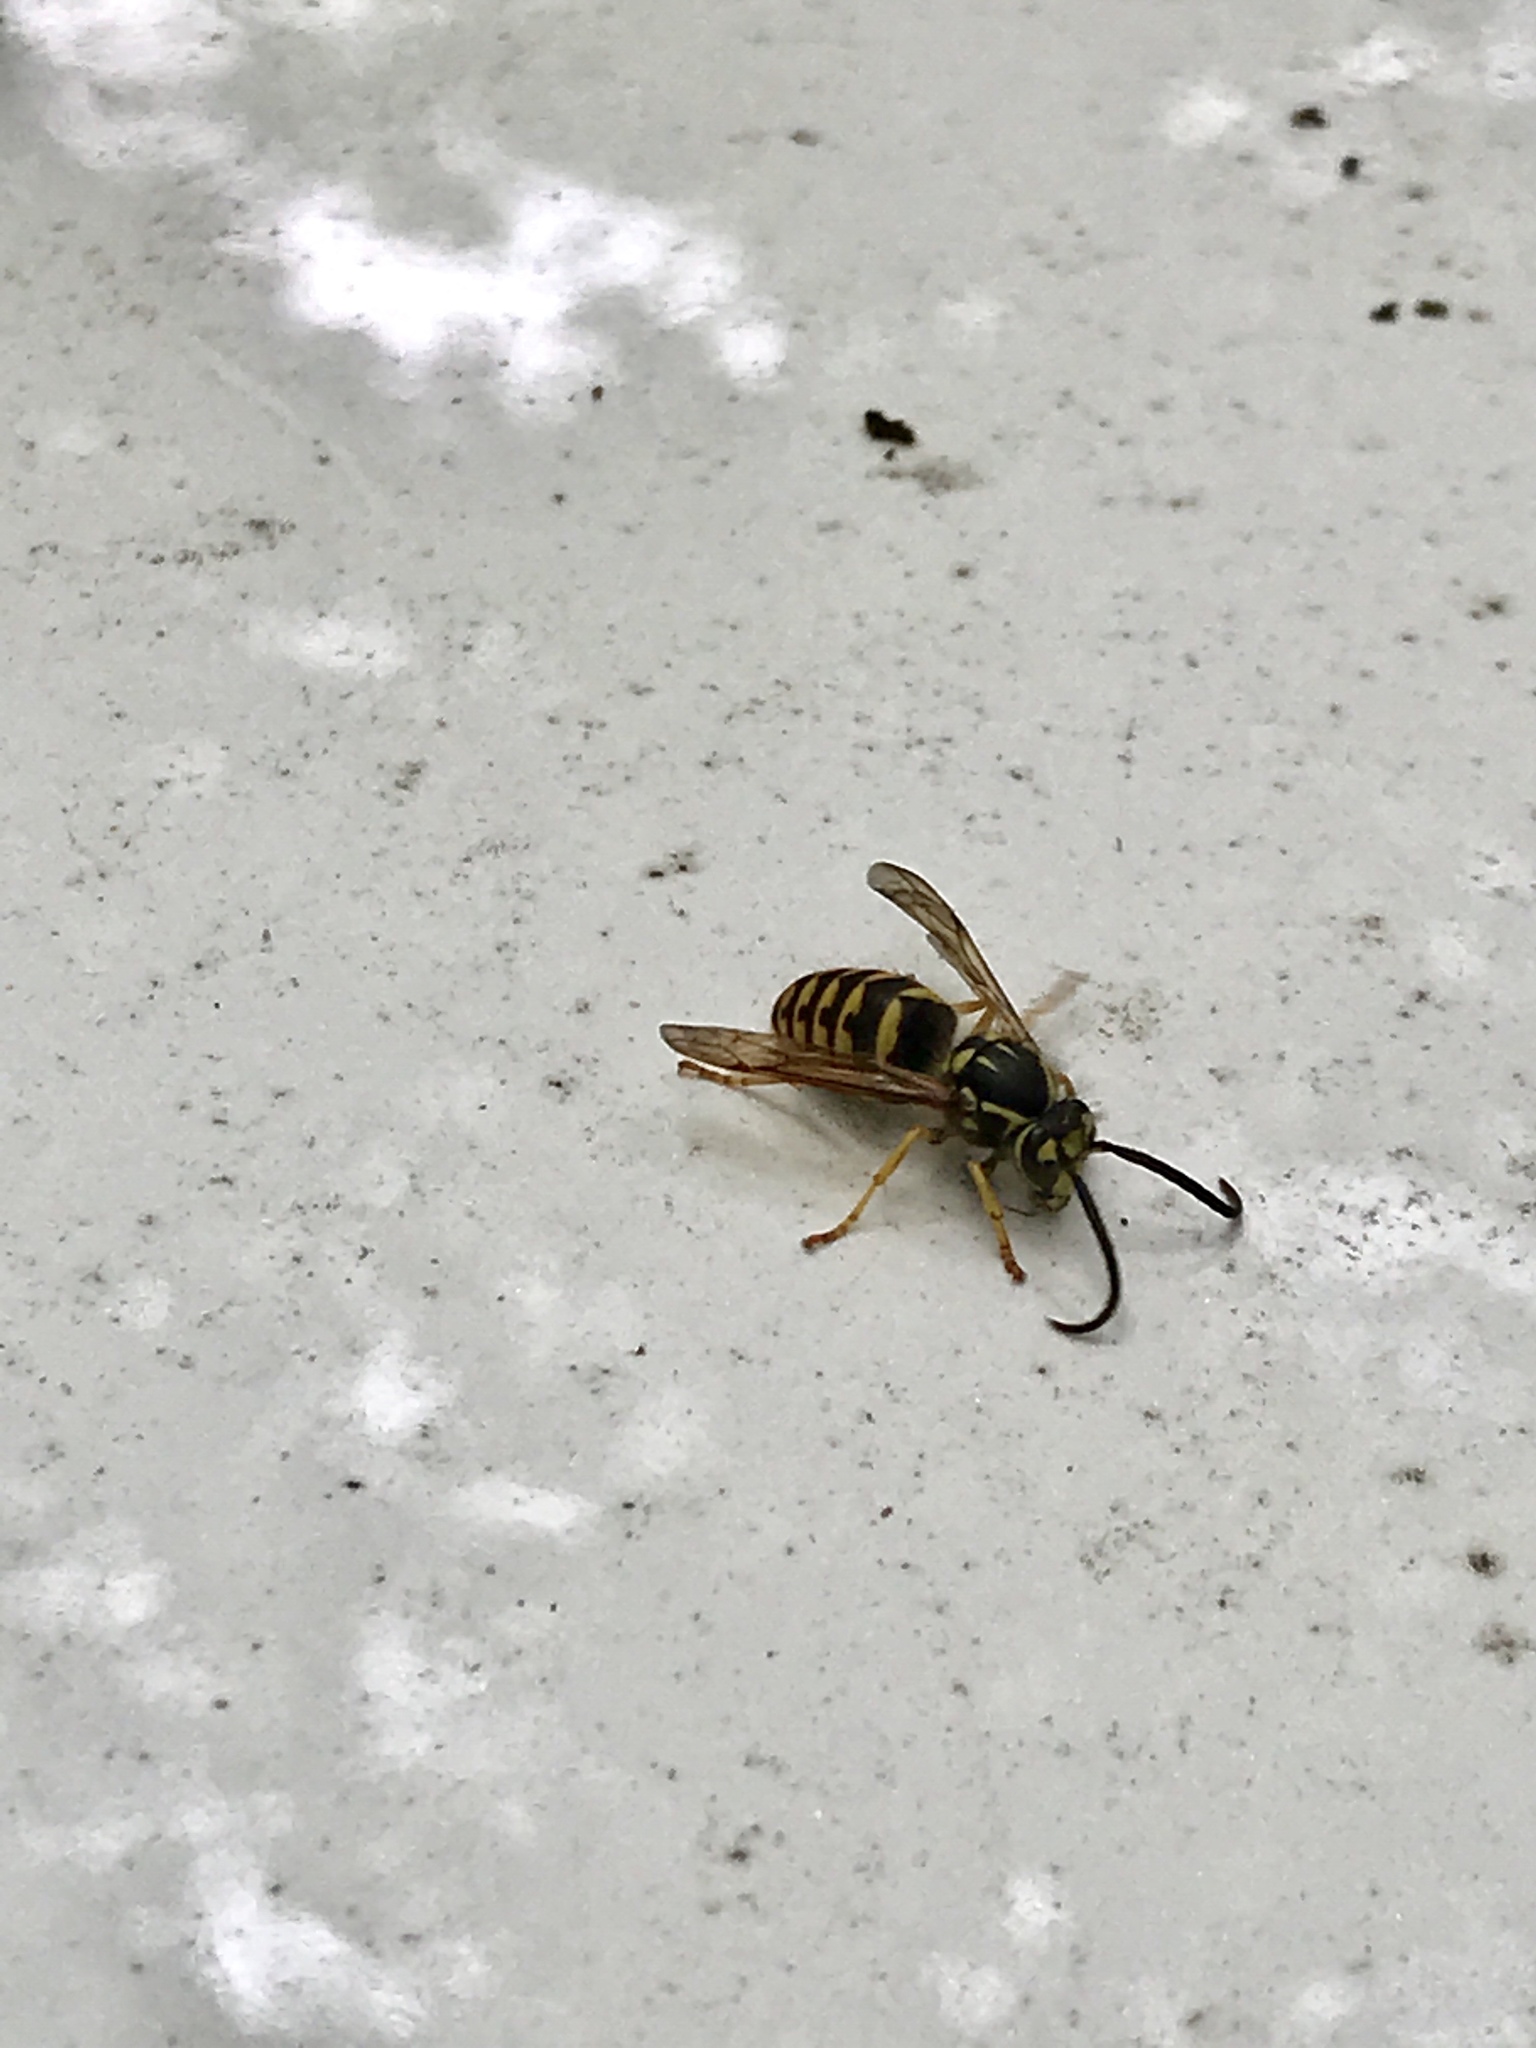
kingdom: Animalia
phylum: Arthropoda
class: Insecta
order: Hymenoptera
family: Vespidae
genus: Dolichovespula
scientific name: Dolichovespula arenaria
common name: Aerial yellowjacket
